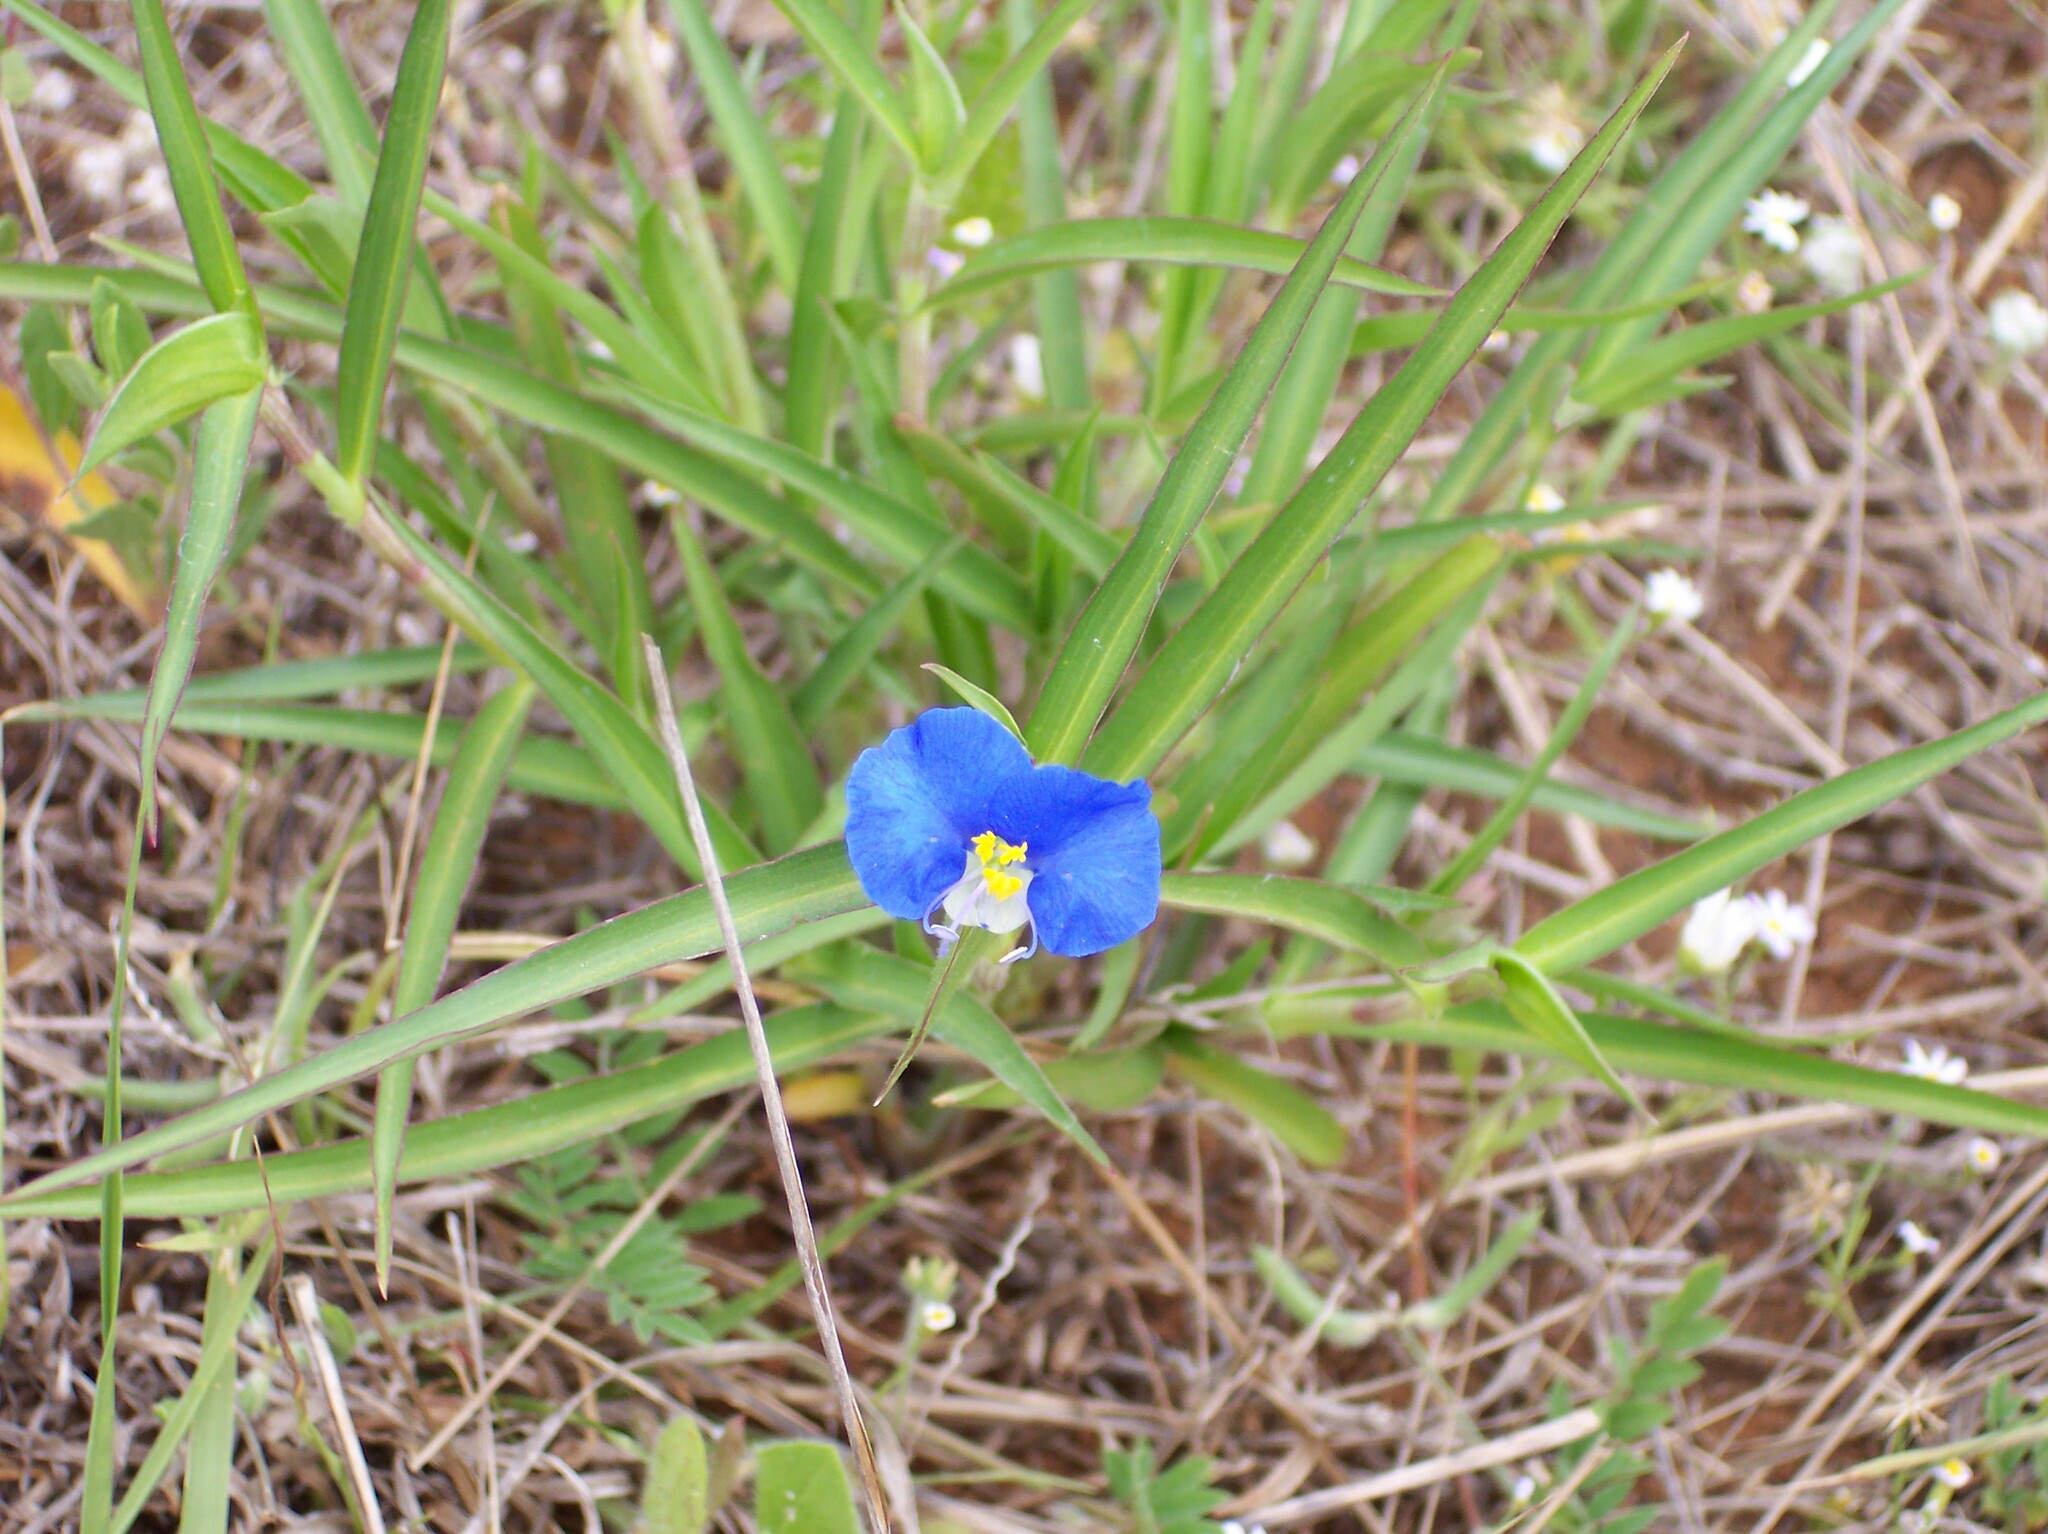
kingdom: Plantae
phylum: Tracheophyta
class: Liliopsida
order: Commelinales
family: Commelinaceae
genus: Commelina
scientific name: Commelina erecta
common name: Blousel blommetjie
